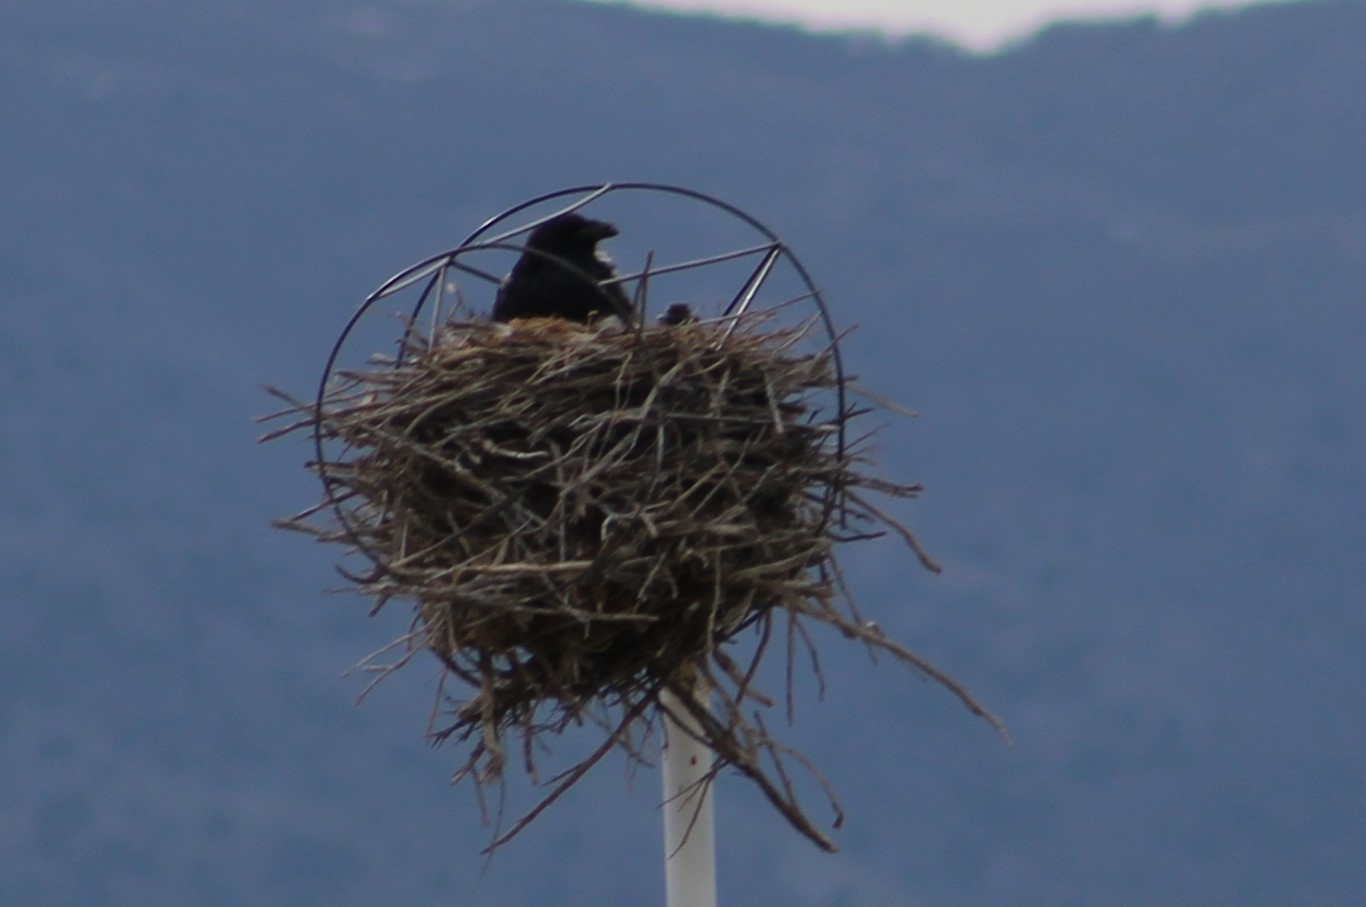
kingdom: Animalia
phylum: Chordata
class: Aves
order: Passeriformes
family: Corvidae
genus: Corvus
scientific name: Corvus corax
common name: Common raven
